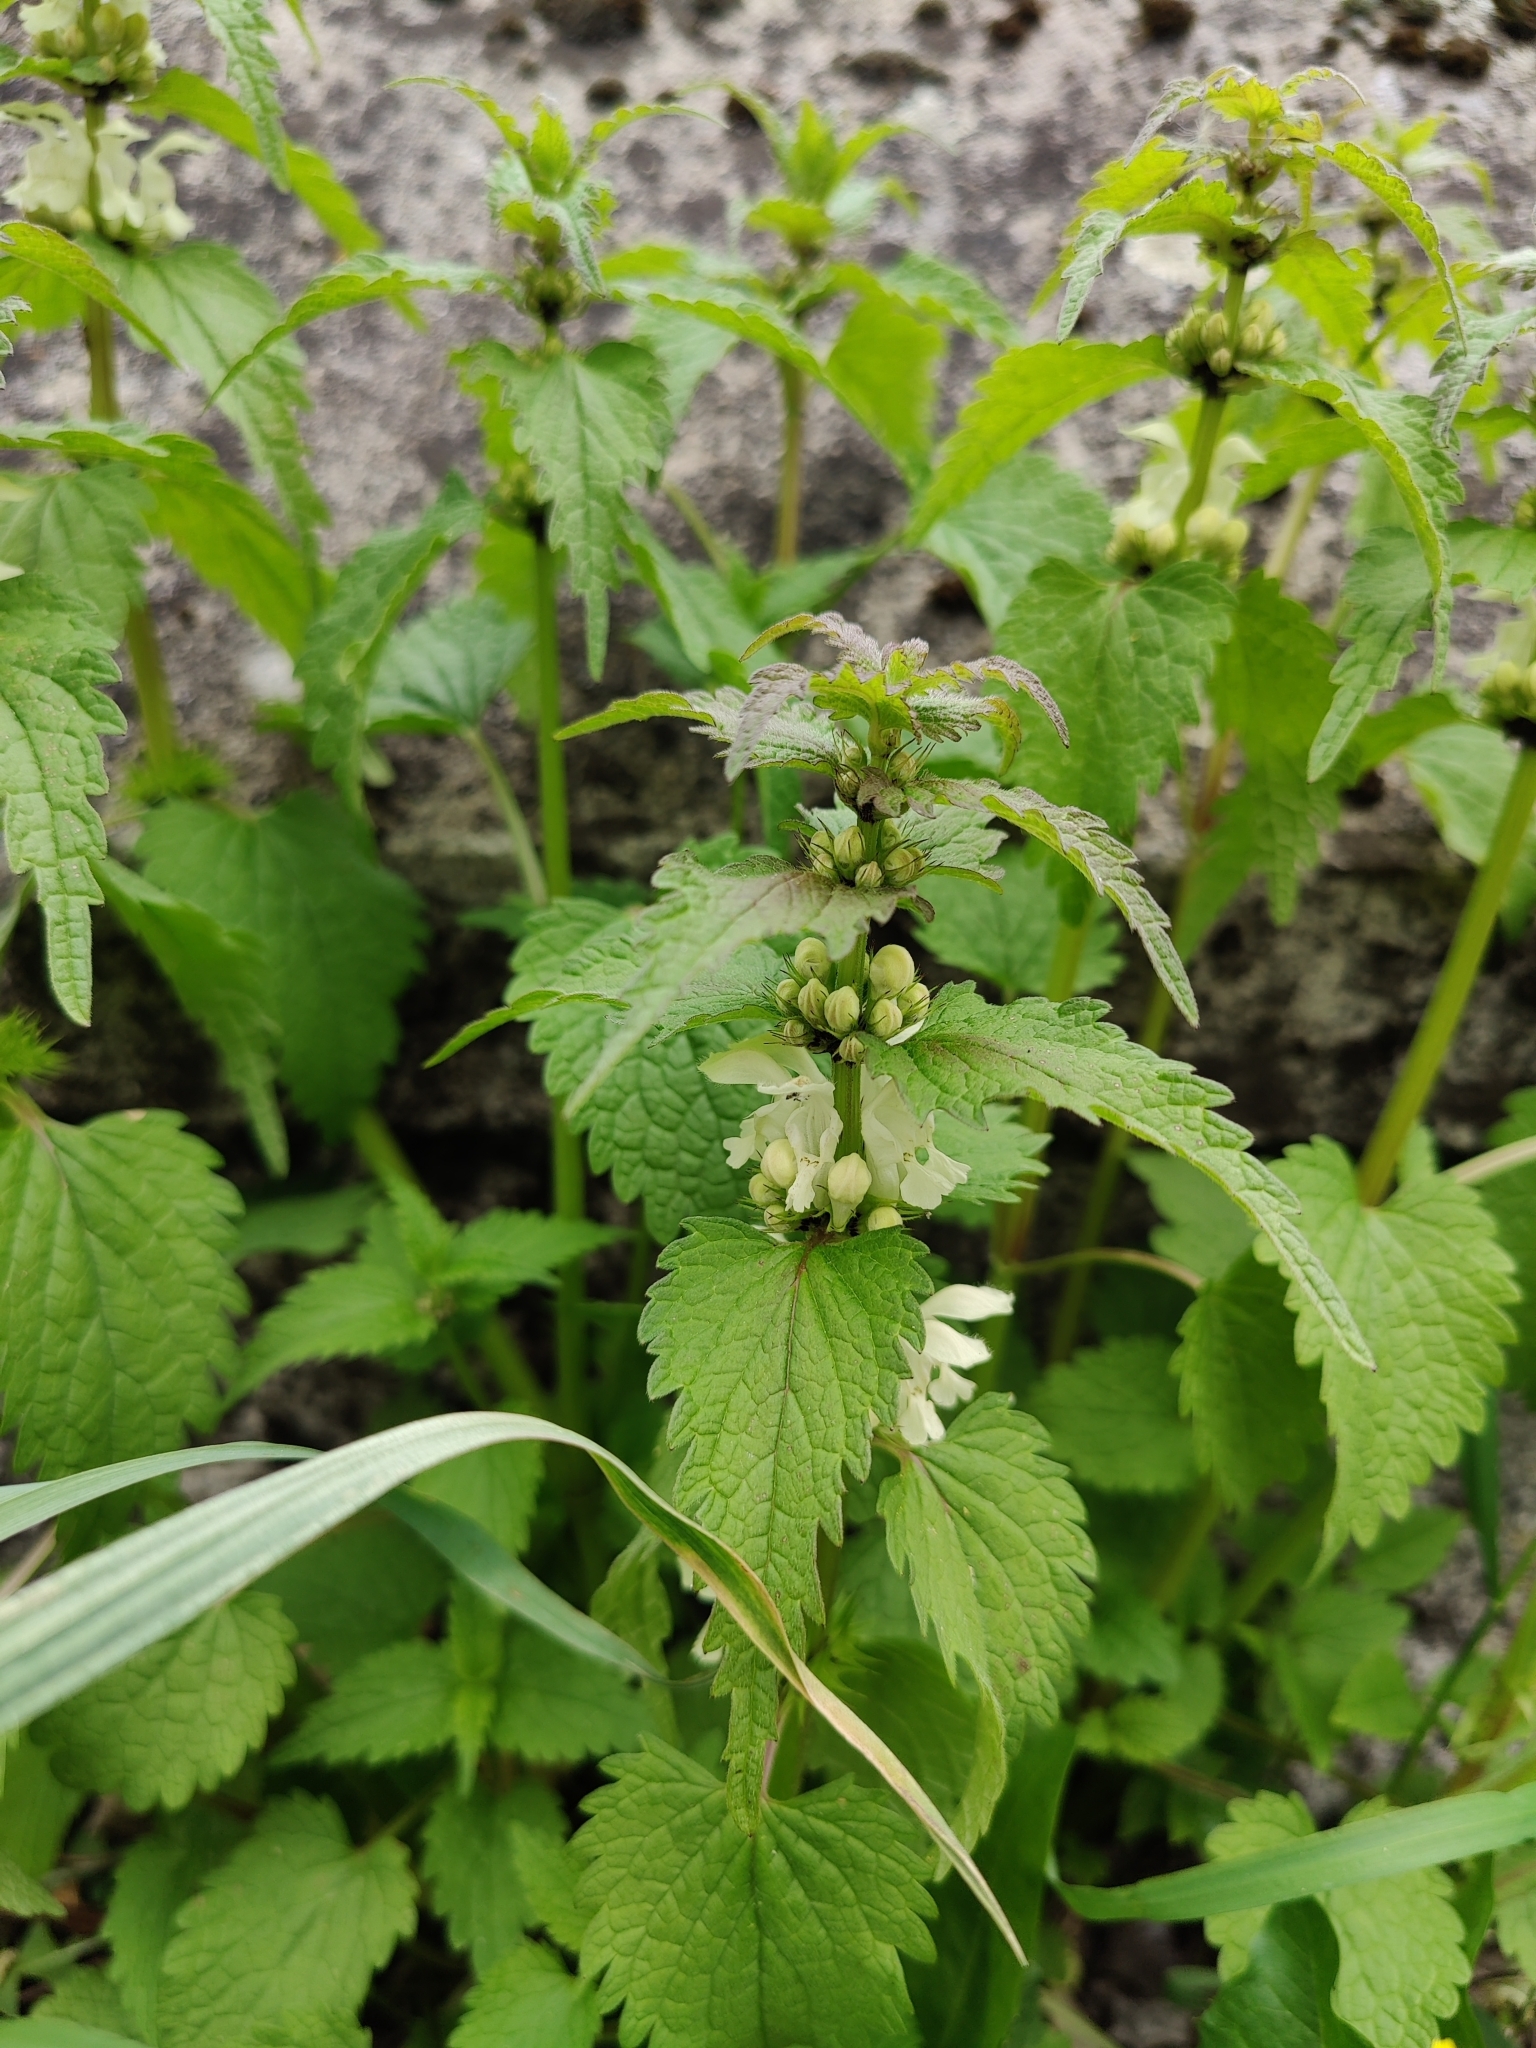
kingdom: Plantae
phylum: Tracheophyta
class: Magnoliopsida
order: Lamiales
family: Lamiaceae
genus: Lamium
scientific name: Lamium album
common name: White dead-nettle
